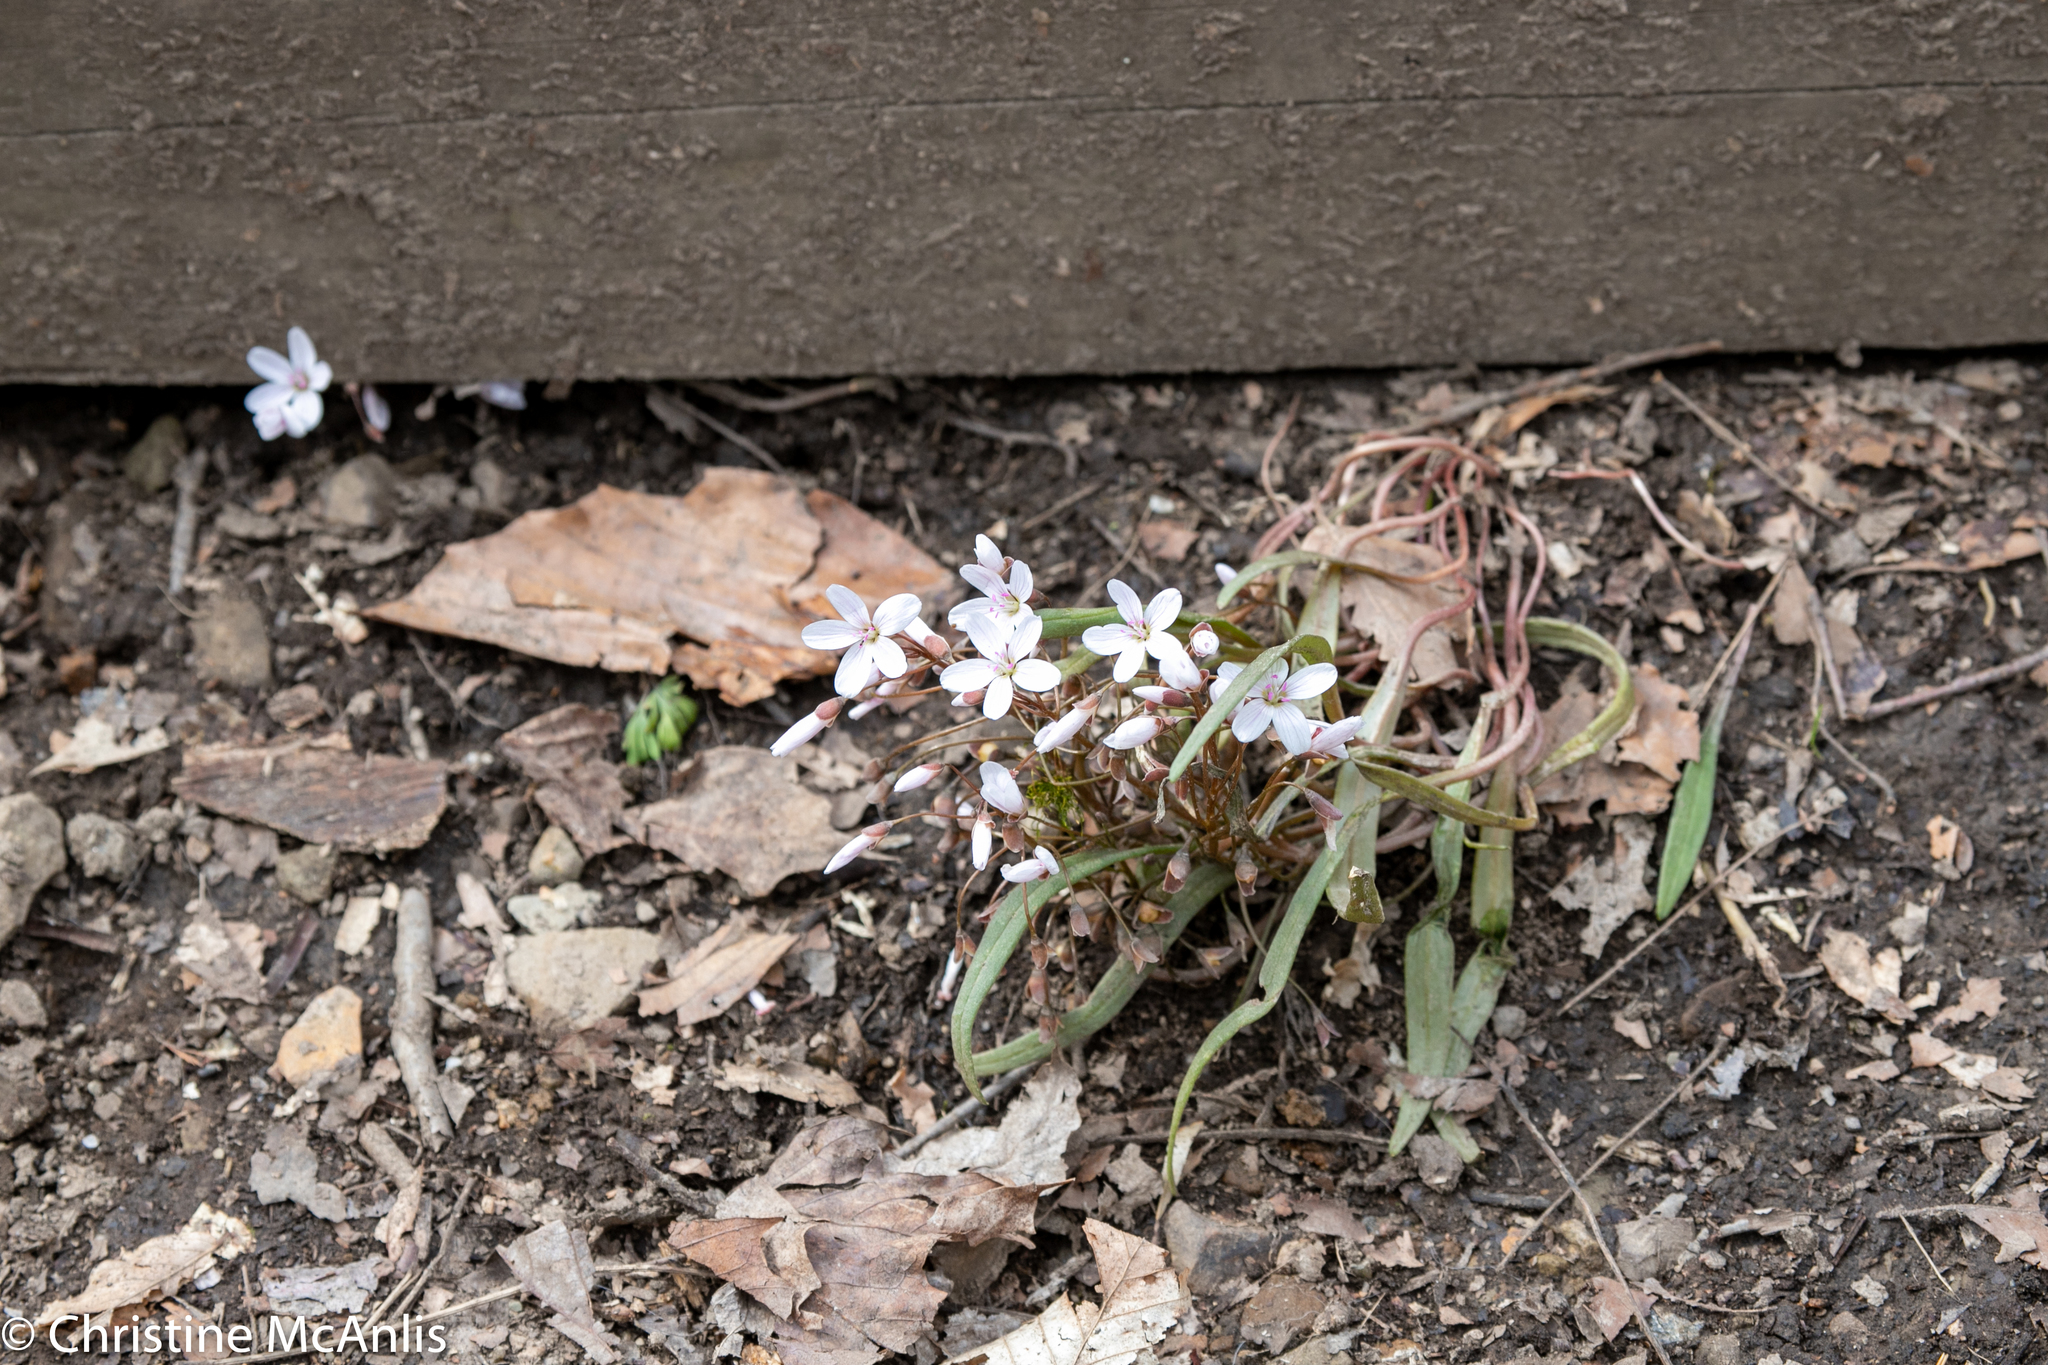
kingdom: Plantae
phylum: Tracheophyta
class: Magnoliopsida
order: Caryophyllales
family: Montiaceae
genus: Claytonia
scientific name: Claytonia virginica
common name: Virginia springbeauty
